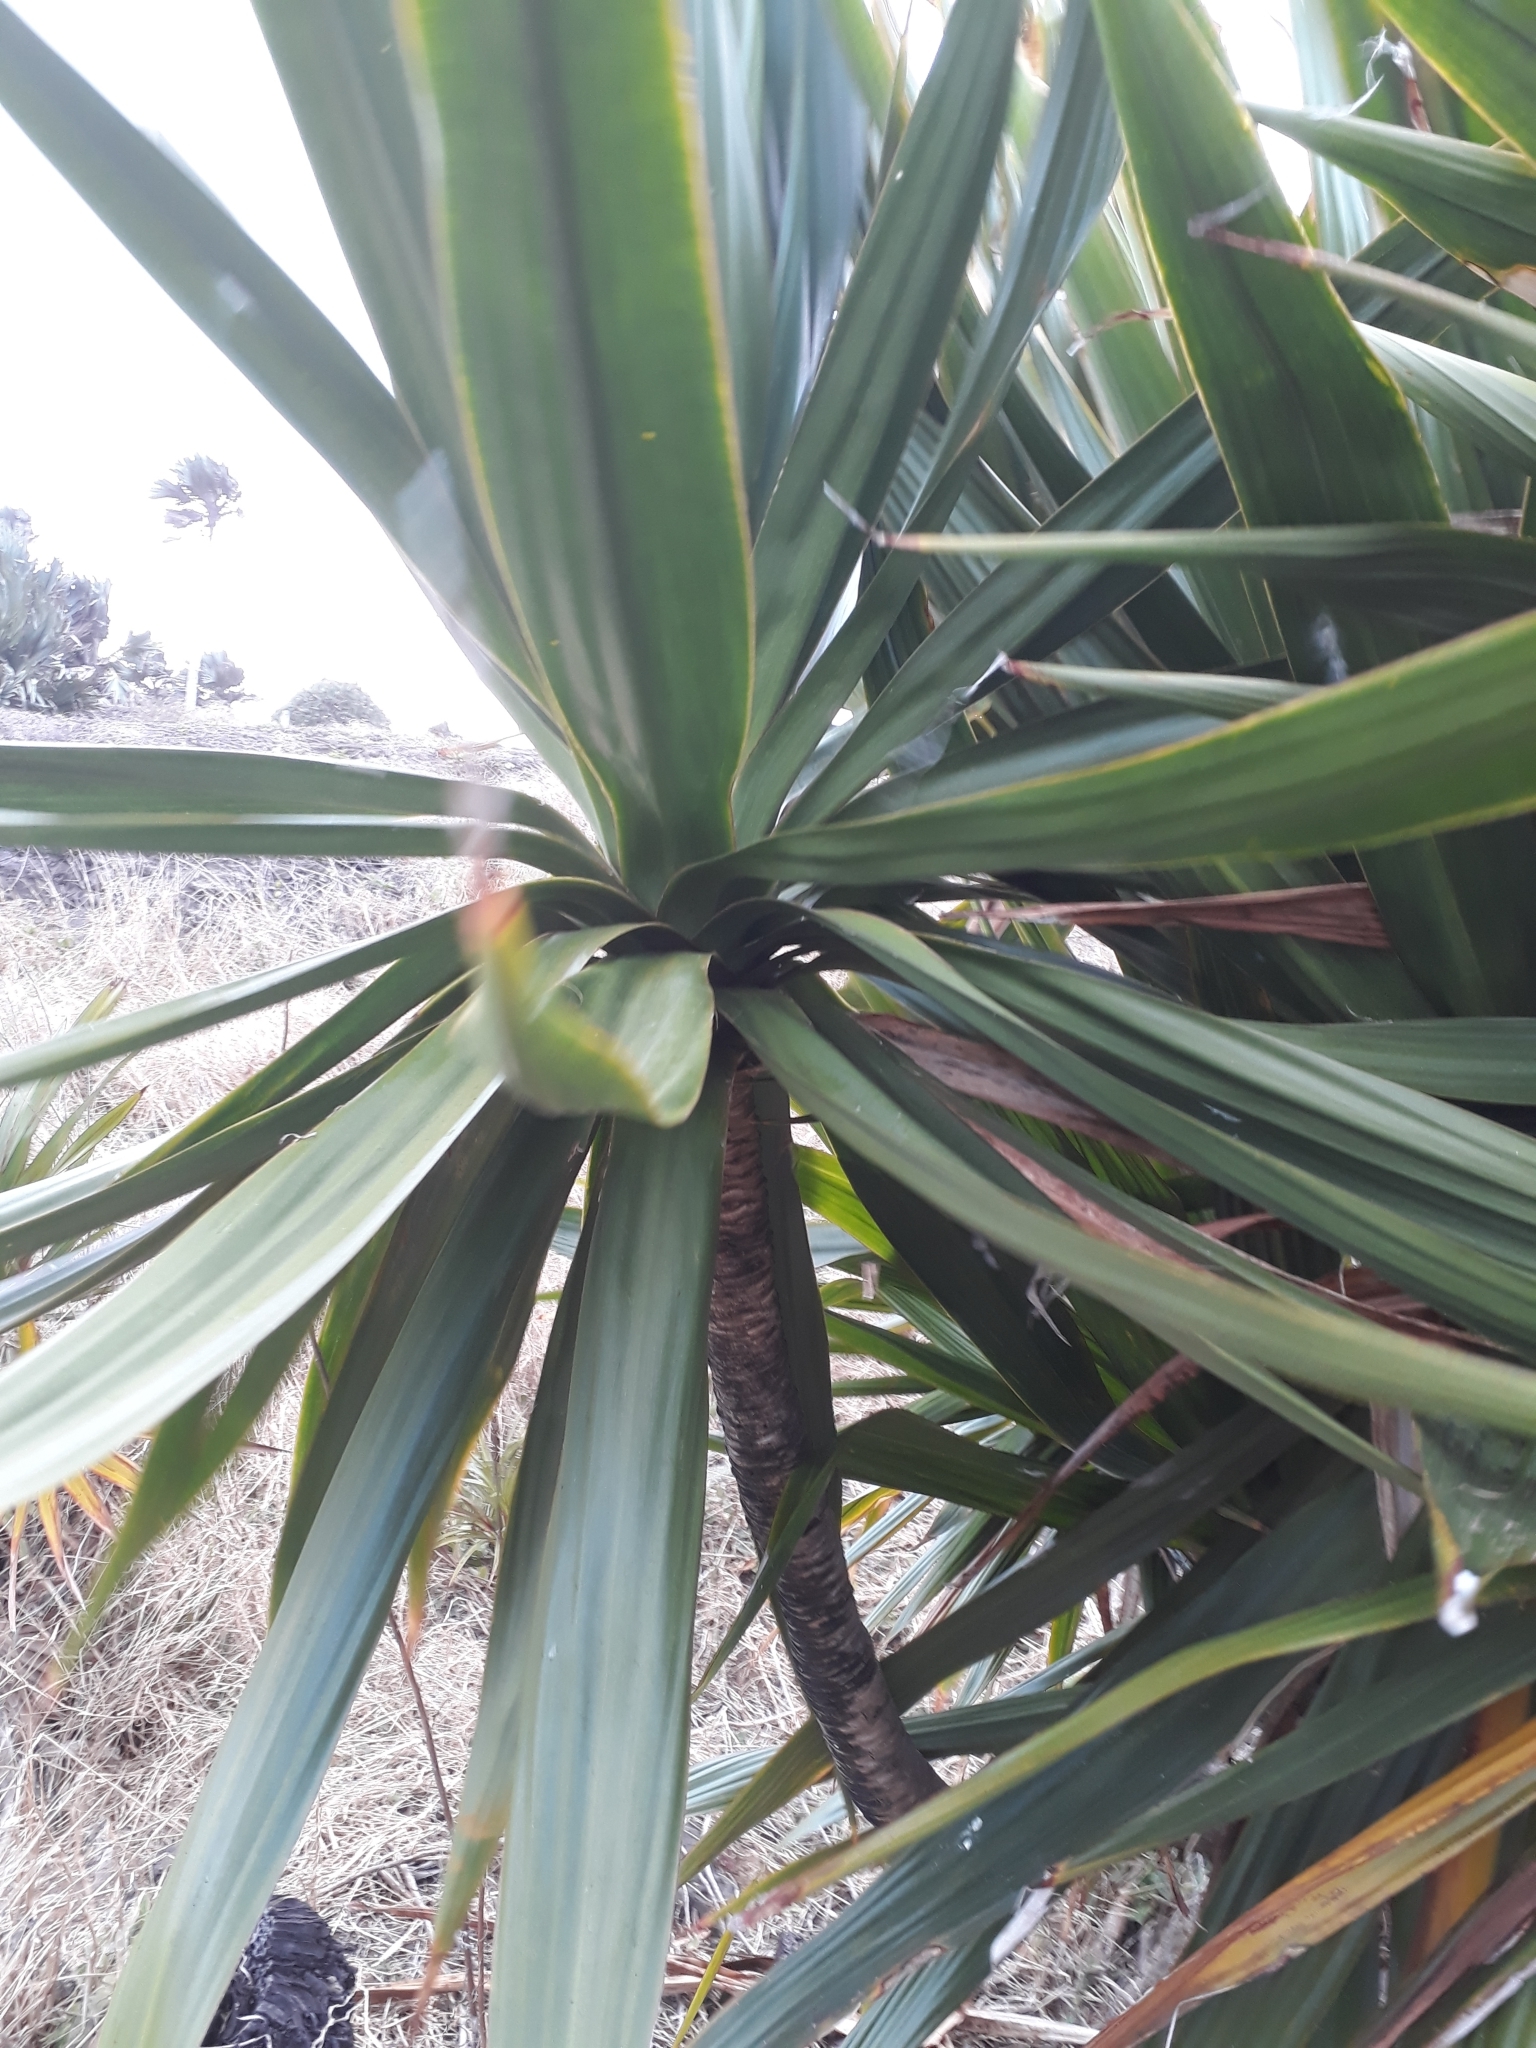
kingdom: Plantae
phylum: Tracheophyta
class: Liliopsida
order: Asparagales
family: Asparagaceae
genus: Dracaena
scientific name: Dracaena concinna
